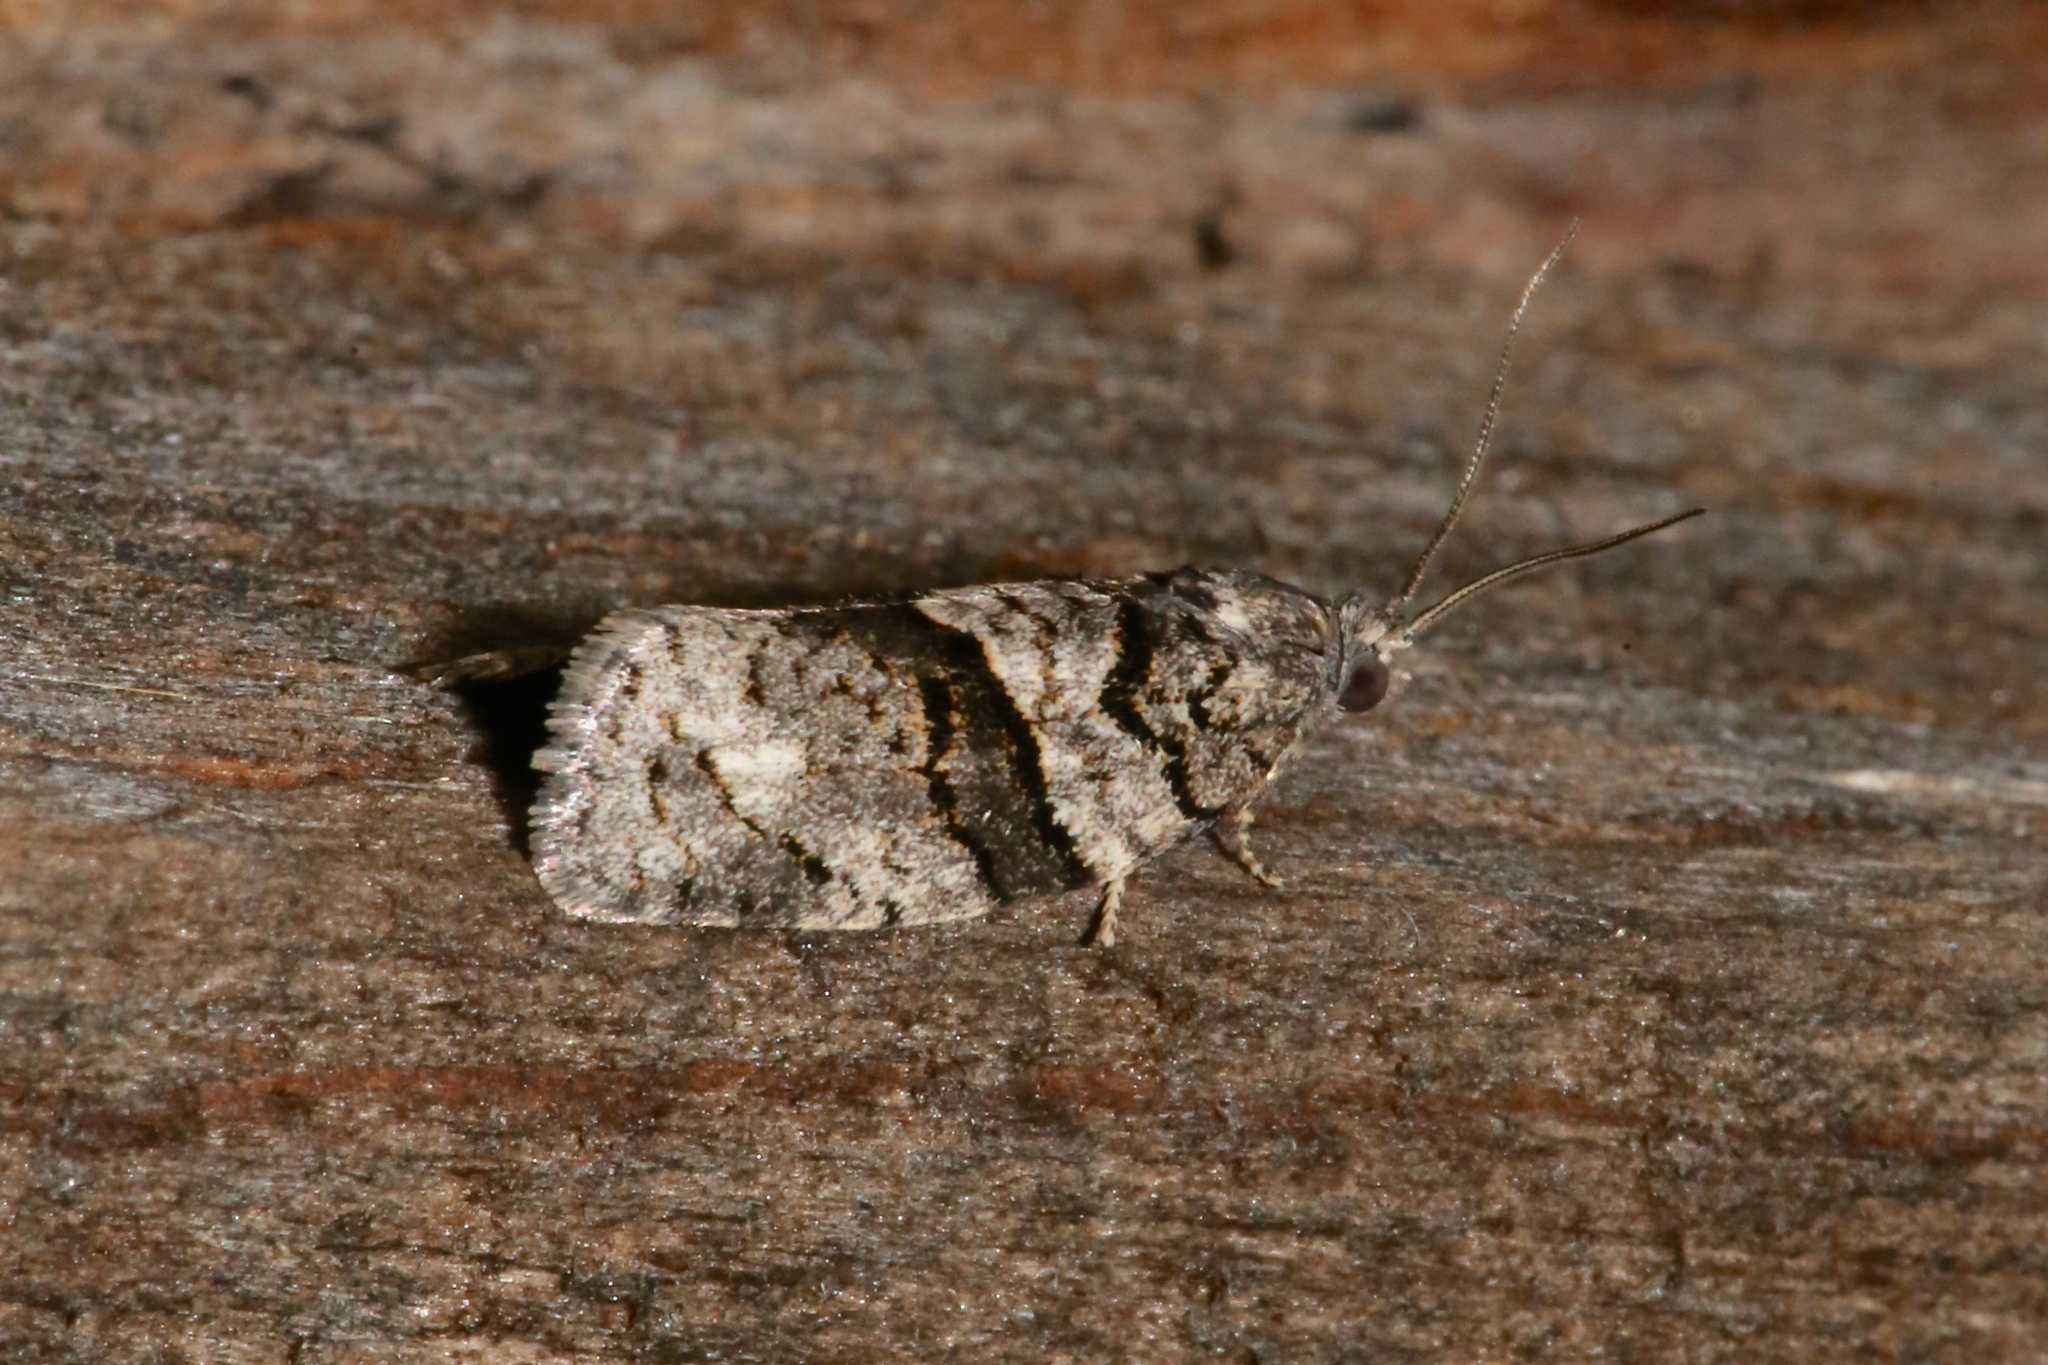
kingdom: Animalia
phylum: Arthropoda
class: Insecta
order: Lepidoptera
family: Tortricidae
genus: Syndemis
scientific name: Syndemis afflictana
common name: Gray leafroller moth
